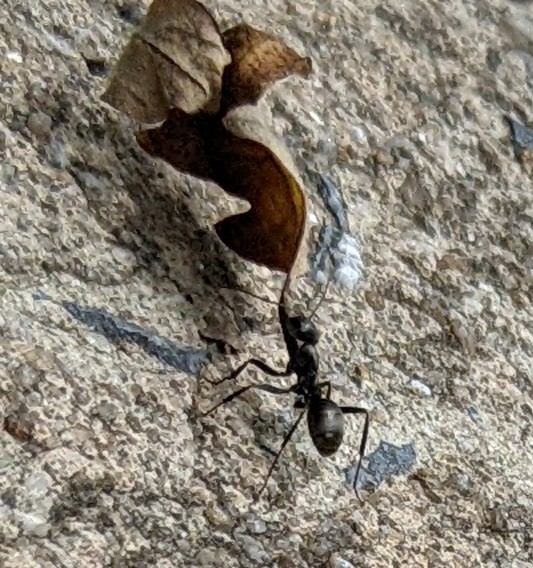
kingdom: Animalia
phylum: Arthropoda
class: Insecta
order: Hymenoptera
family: Formicidae
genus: Formica
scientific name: Formica
